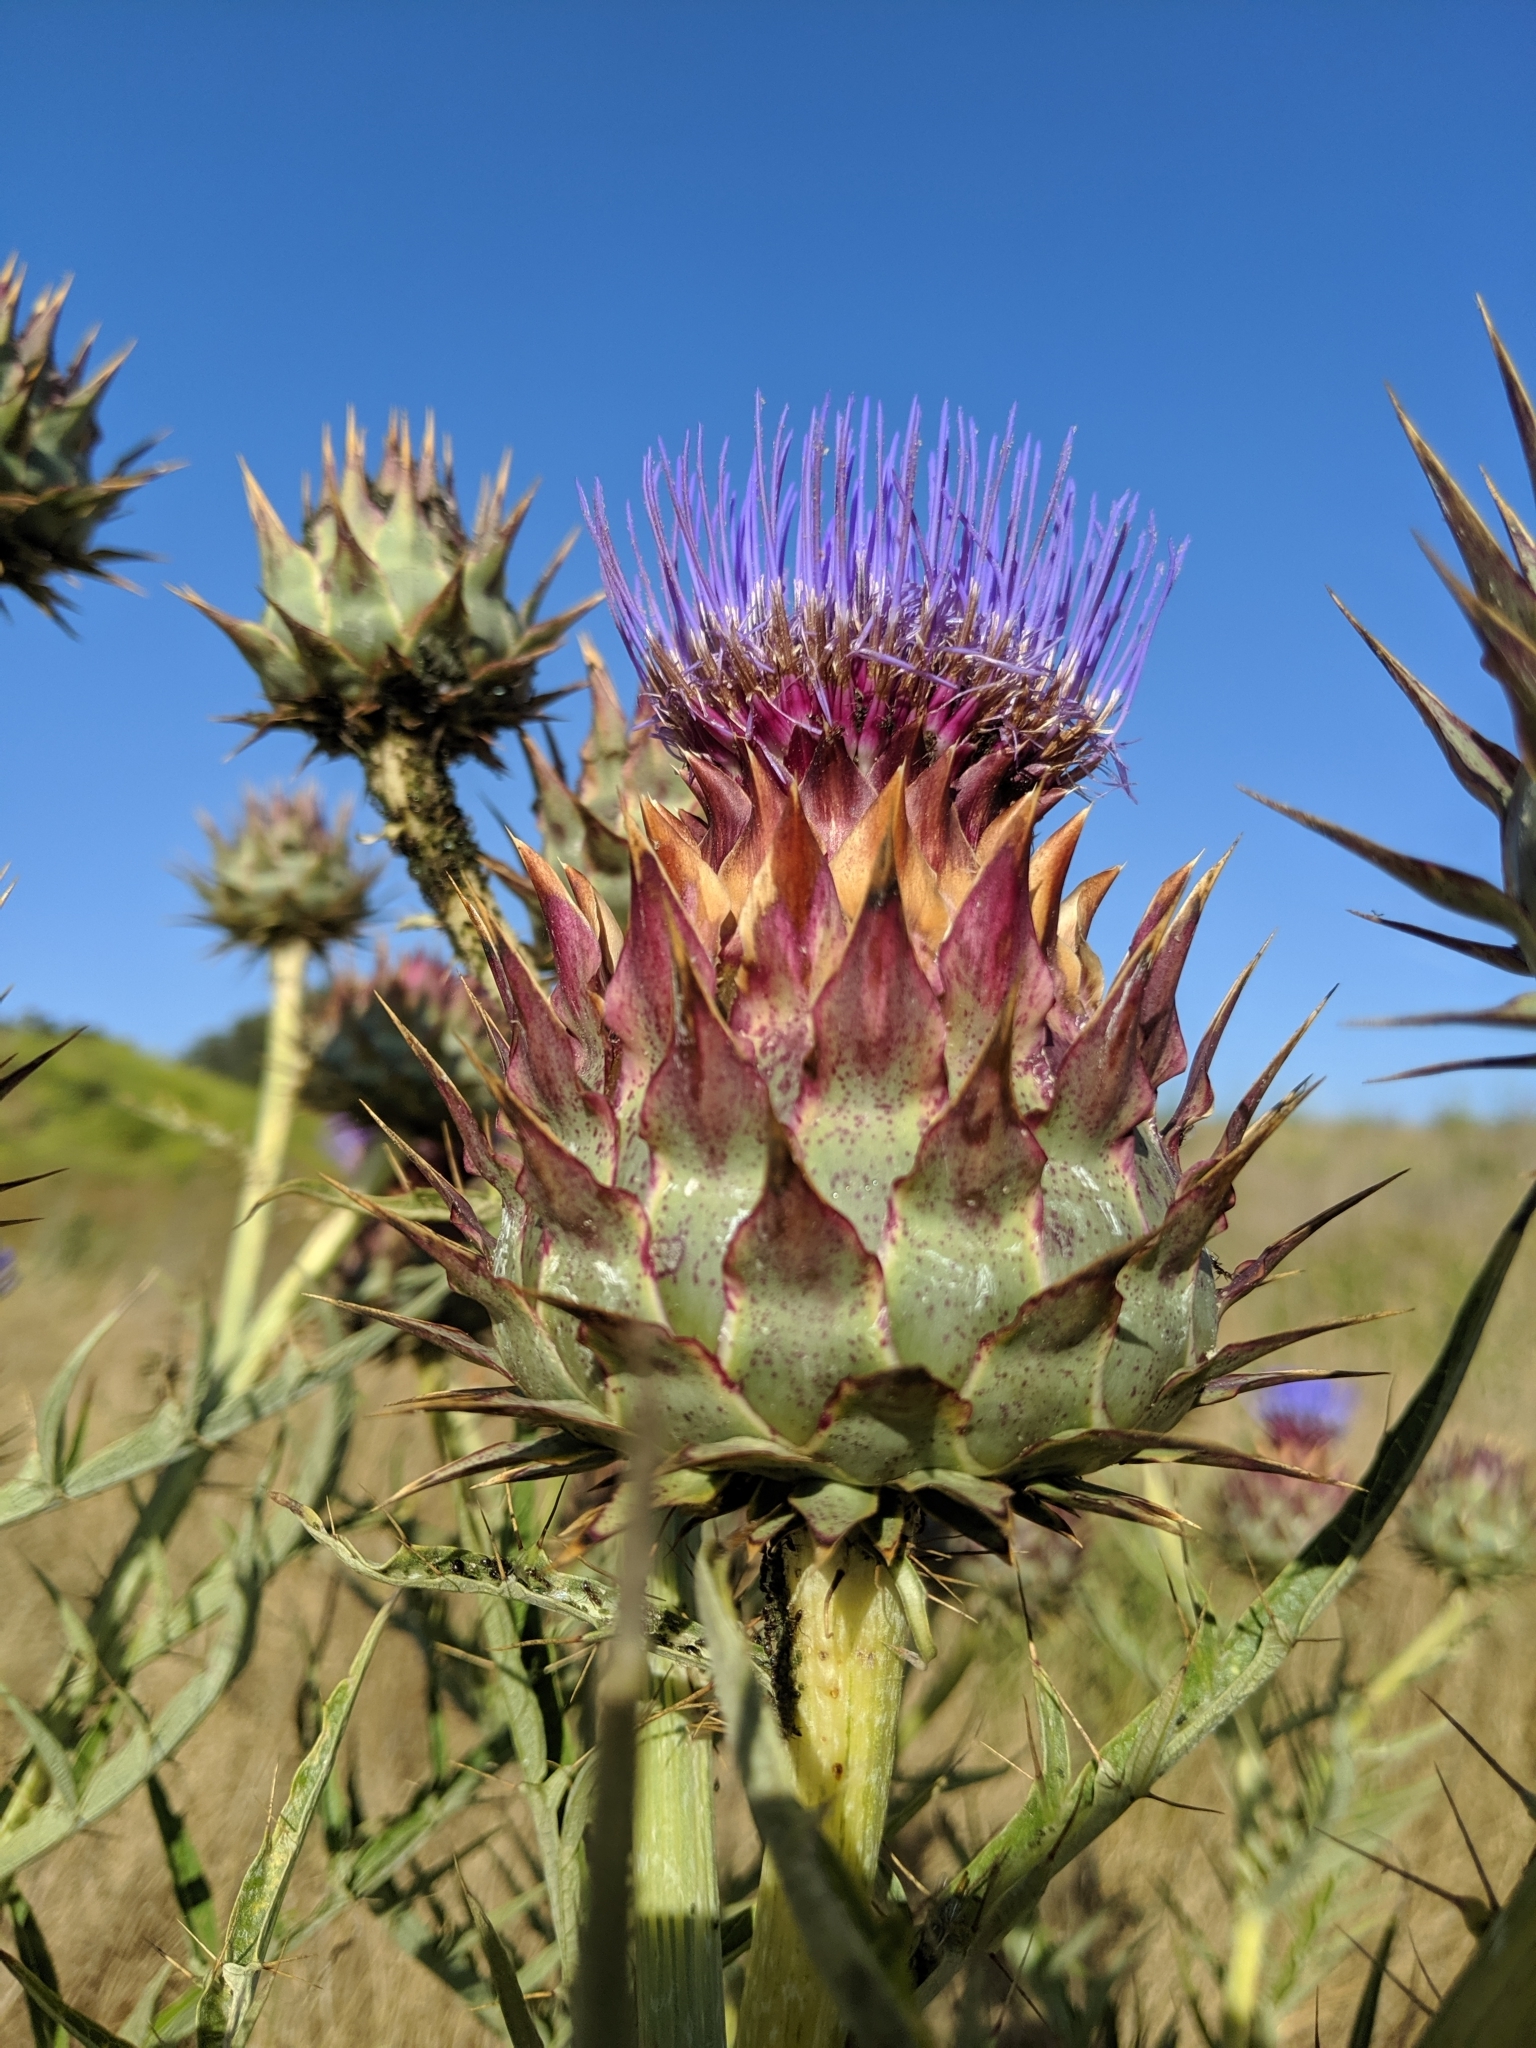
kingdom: Plantae
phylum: Tracheophyta
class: Magnoliopsida
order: Asterales
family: Asteraceae
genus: Cynara
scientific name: Cynara cardunculus
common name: Globe artichoke
